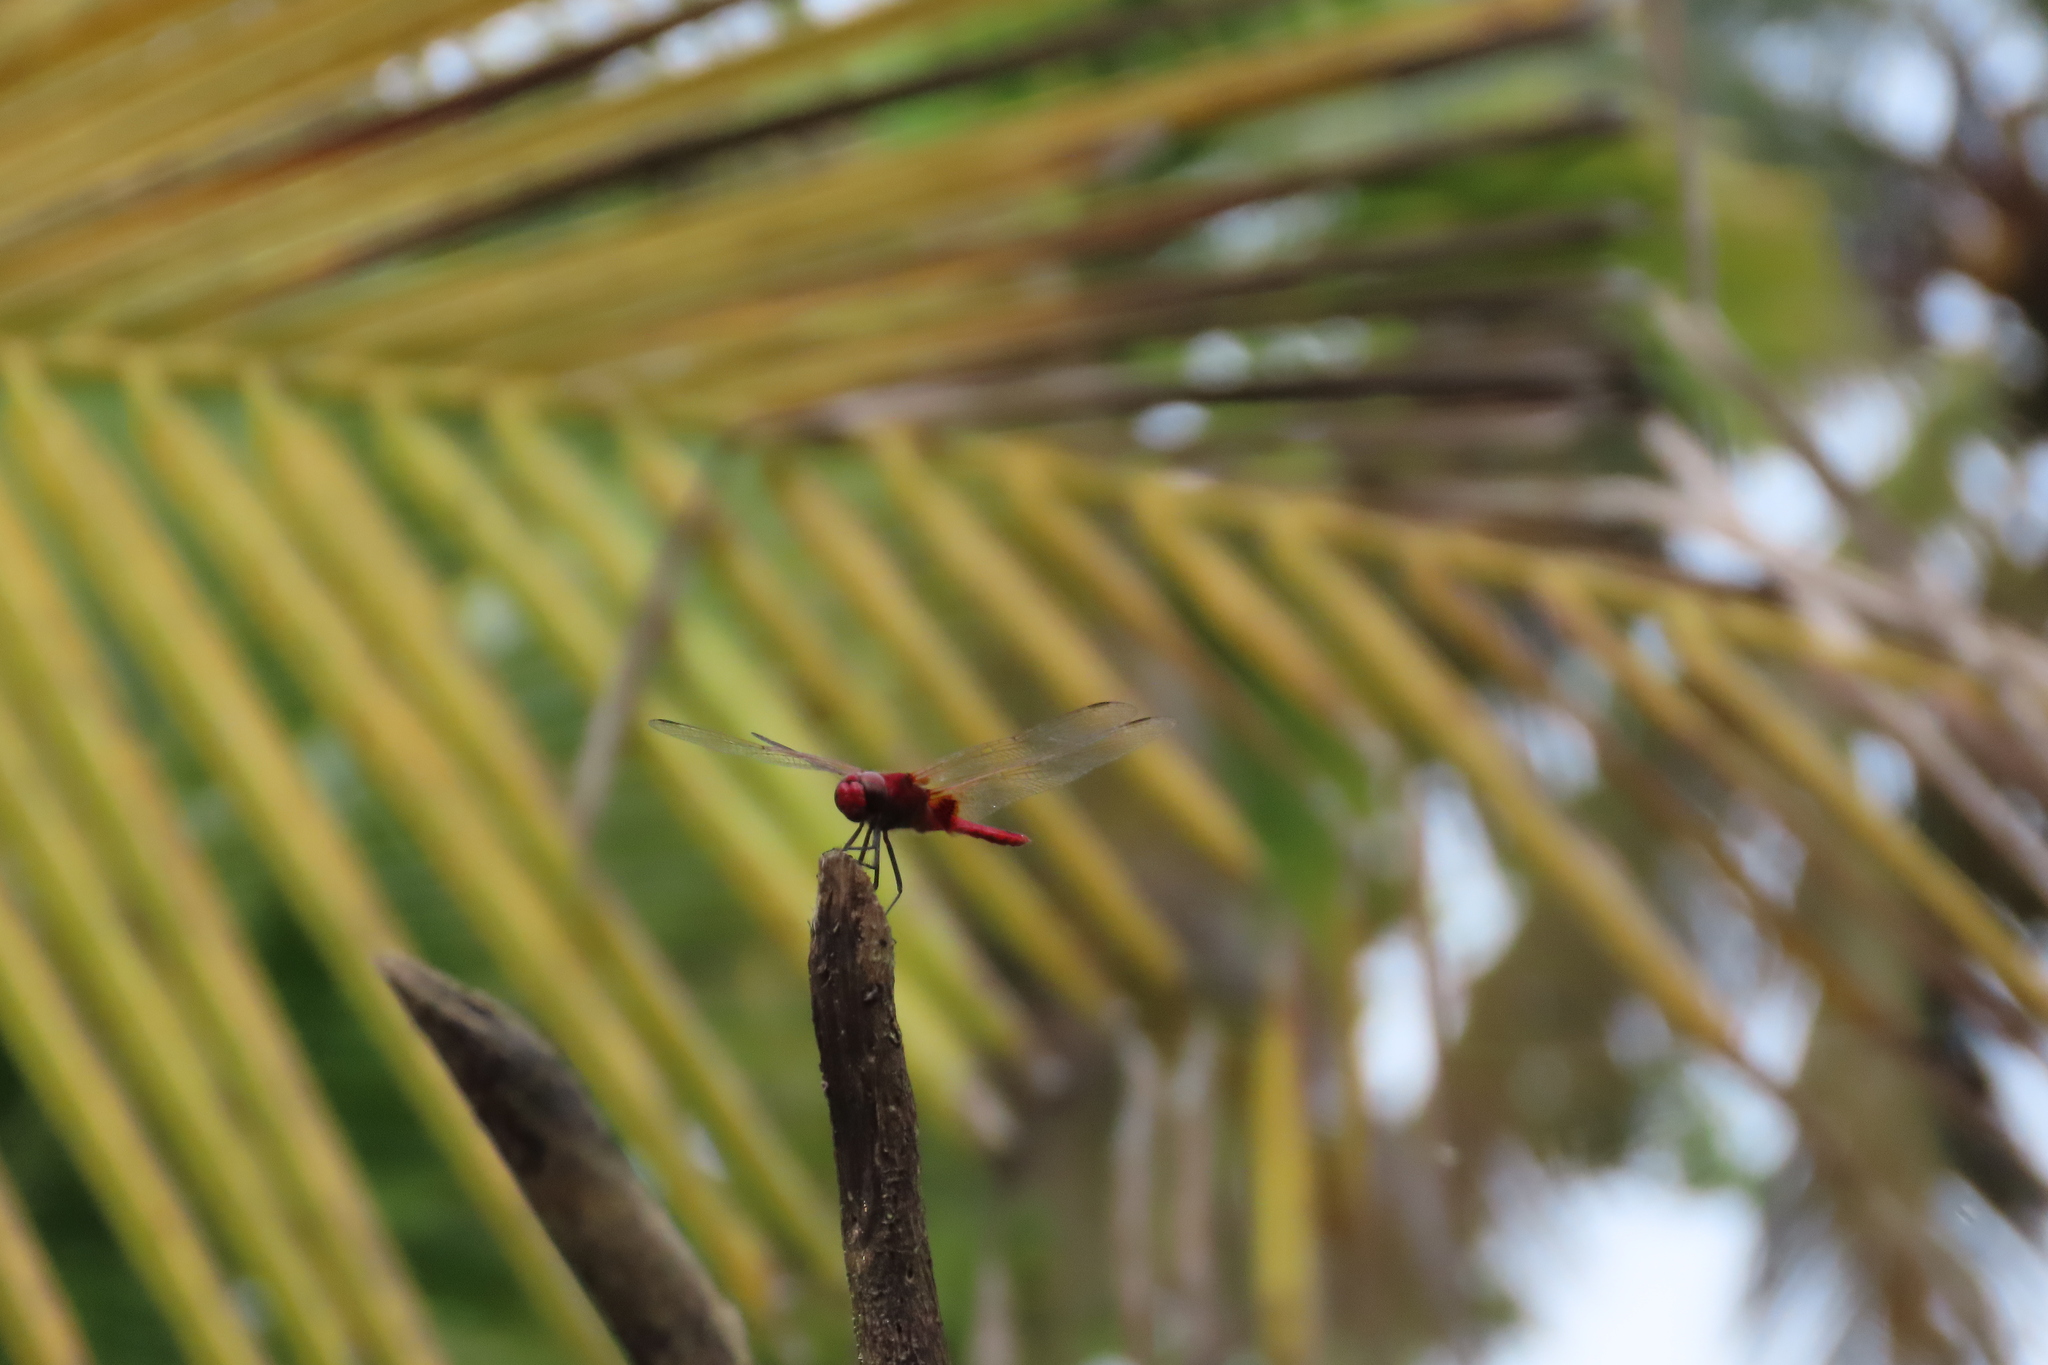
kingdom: Animalia
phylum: Arthropoda
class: Insecta
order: Odonata
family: Libellulidae
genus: Urothemis
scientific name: Urothemis signata
